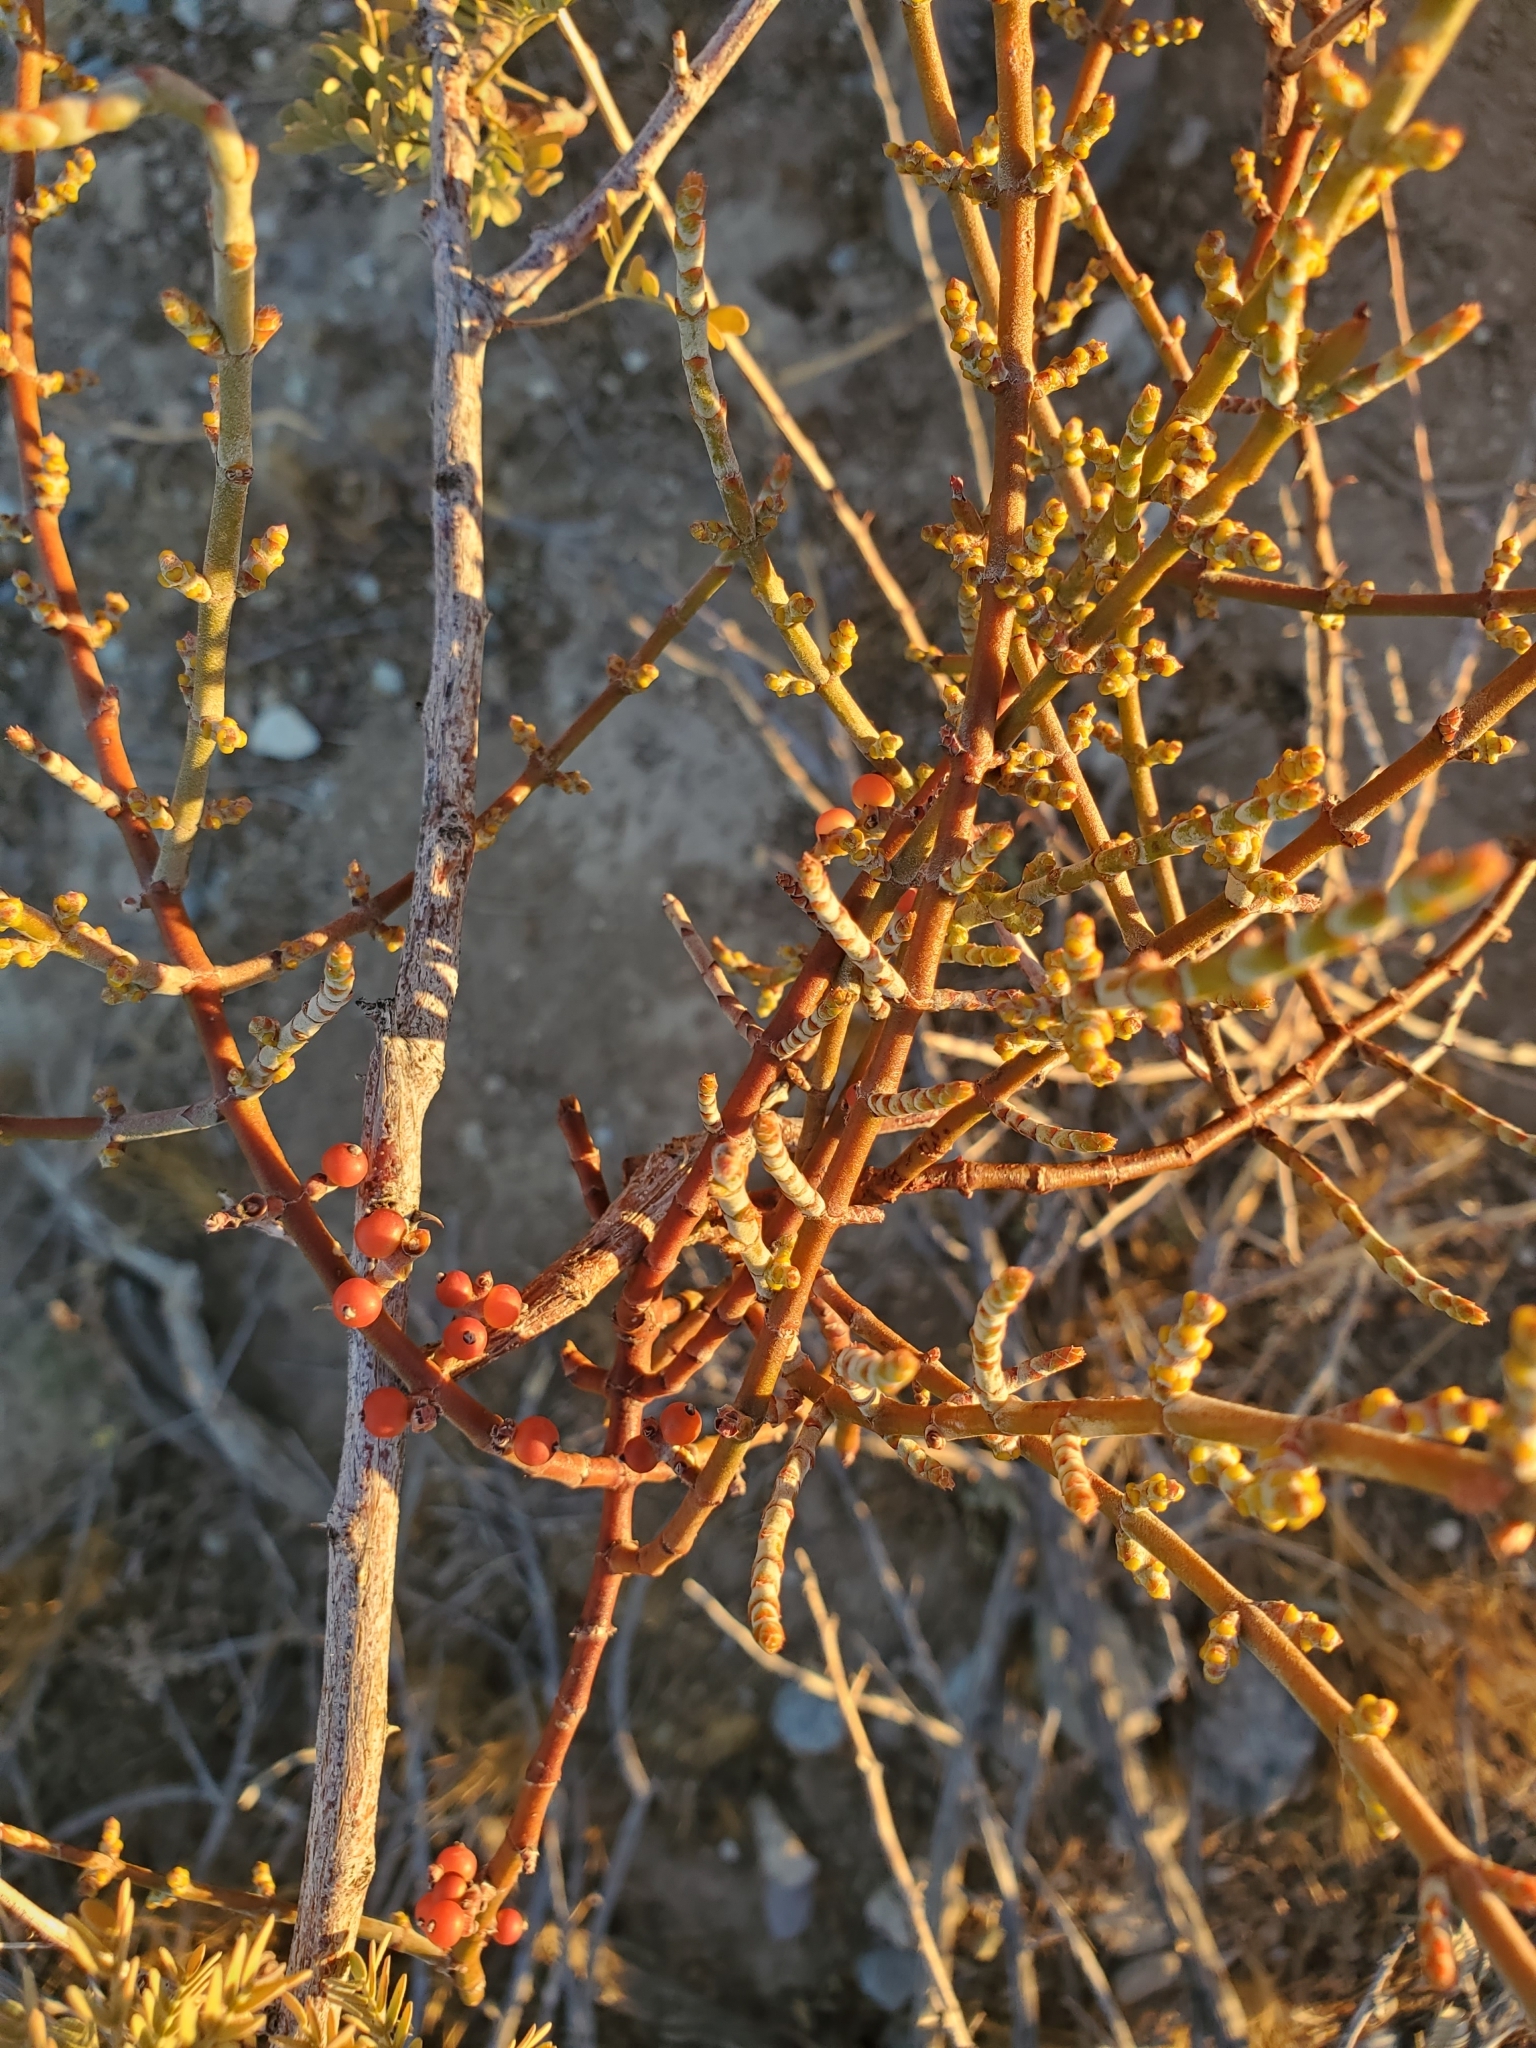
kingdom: Plantae
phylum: Tracheophyta
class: Magnoliopsida
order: Santalales
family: Viscaceae
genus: Phoradendron
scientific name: Phoradendron californicum
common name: Acacia mistletoe
